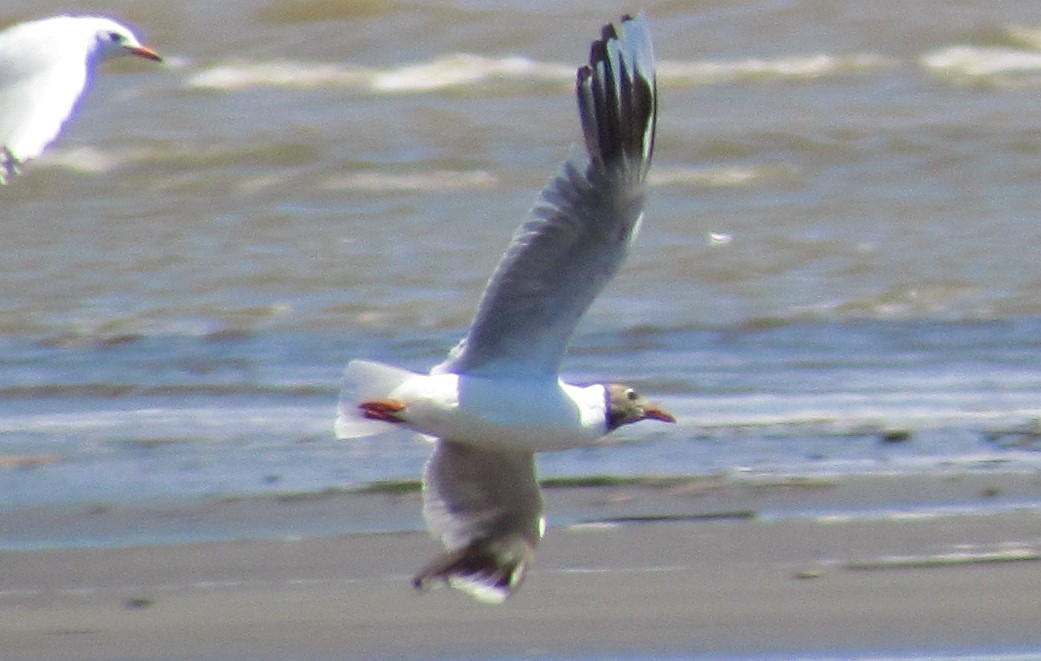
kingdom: Animalia
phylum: Chordata
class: Aves
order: Charadriiformes
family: Laridae
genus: Chroicocephalus
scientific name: Chroicocephalus maculipennis
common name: Brown-hooded gull
